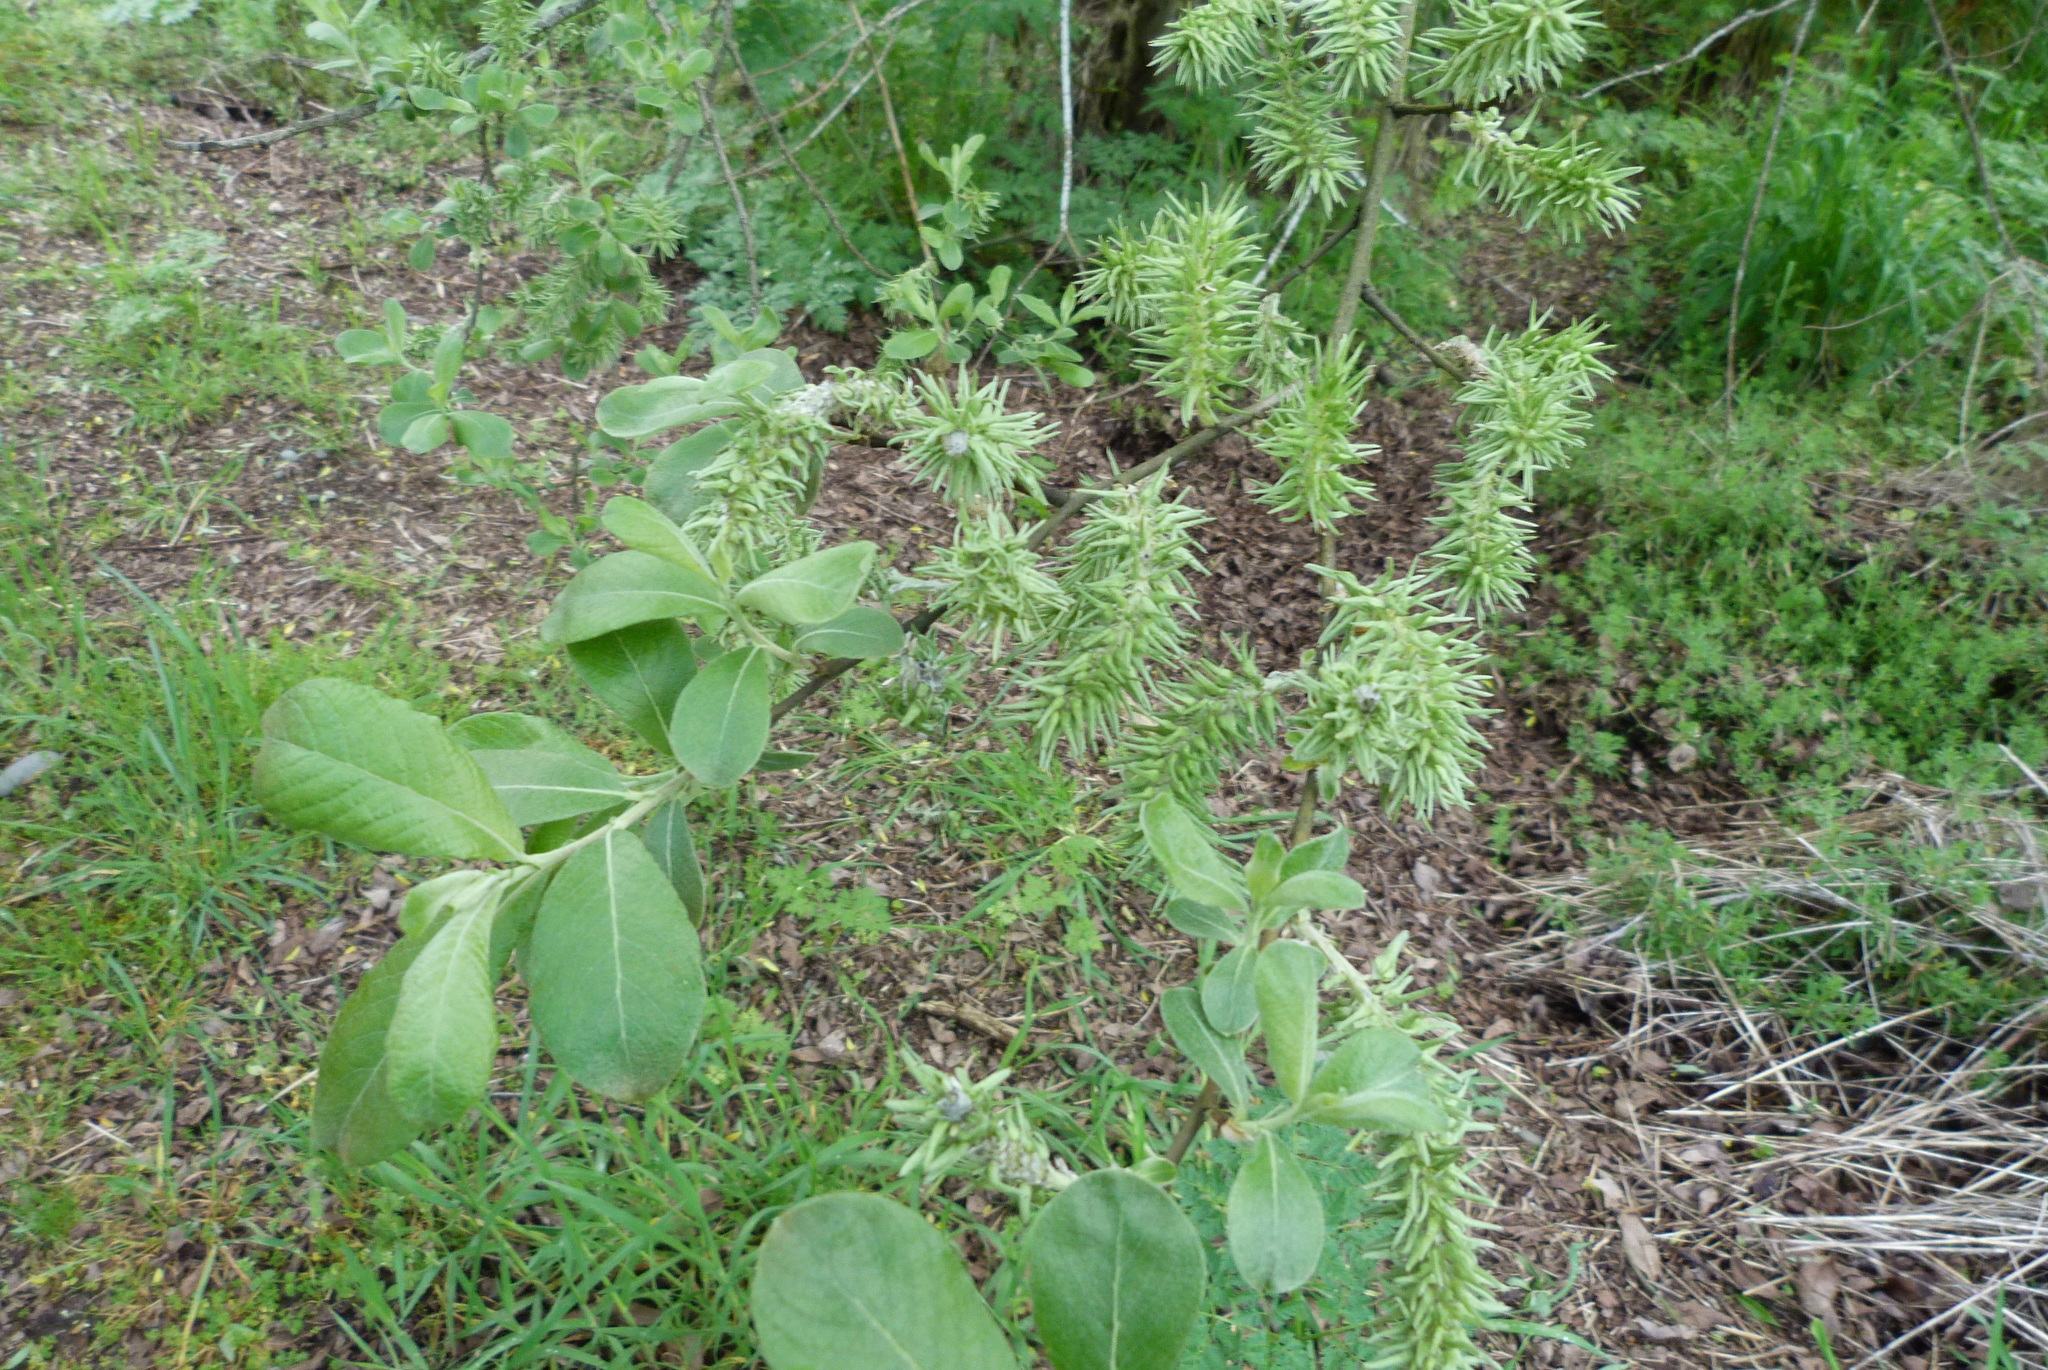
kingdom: Plantae
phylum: Tracheophyta
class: Magnoliopsida
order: Malpighiales
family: Salicaceae
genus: Salix
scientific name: Salix cinerea
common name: Common sallow
